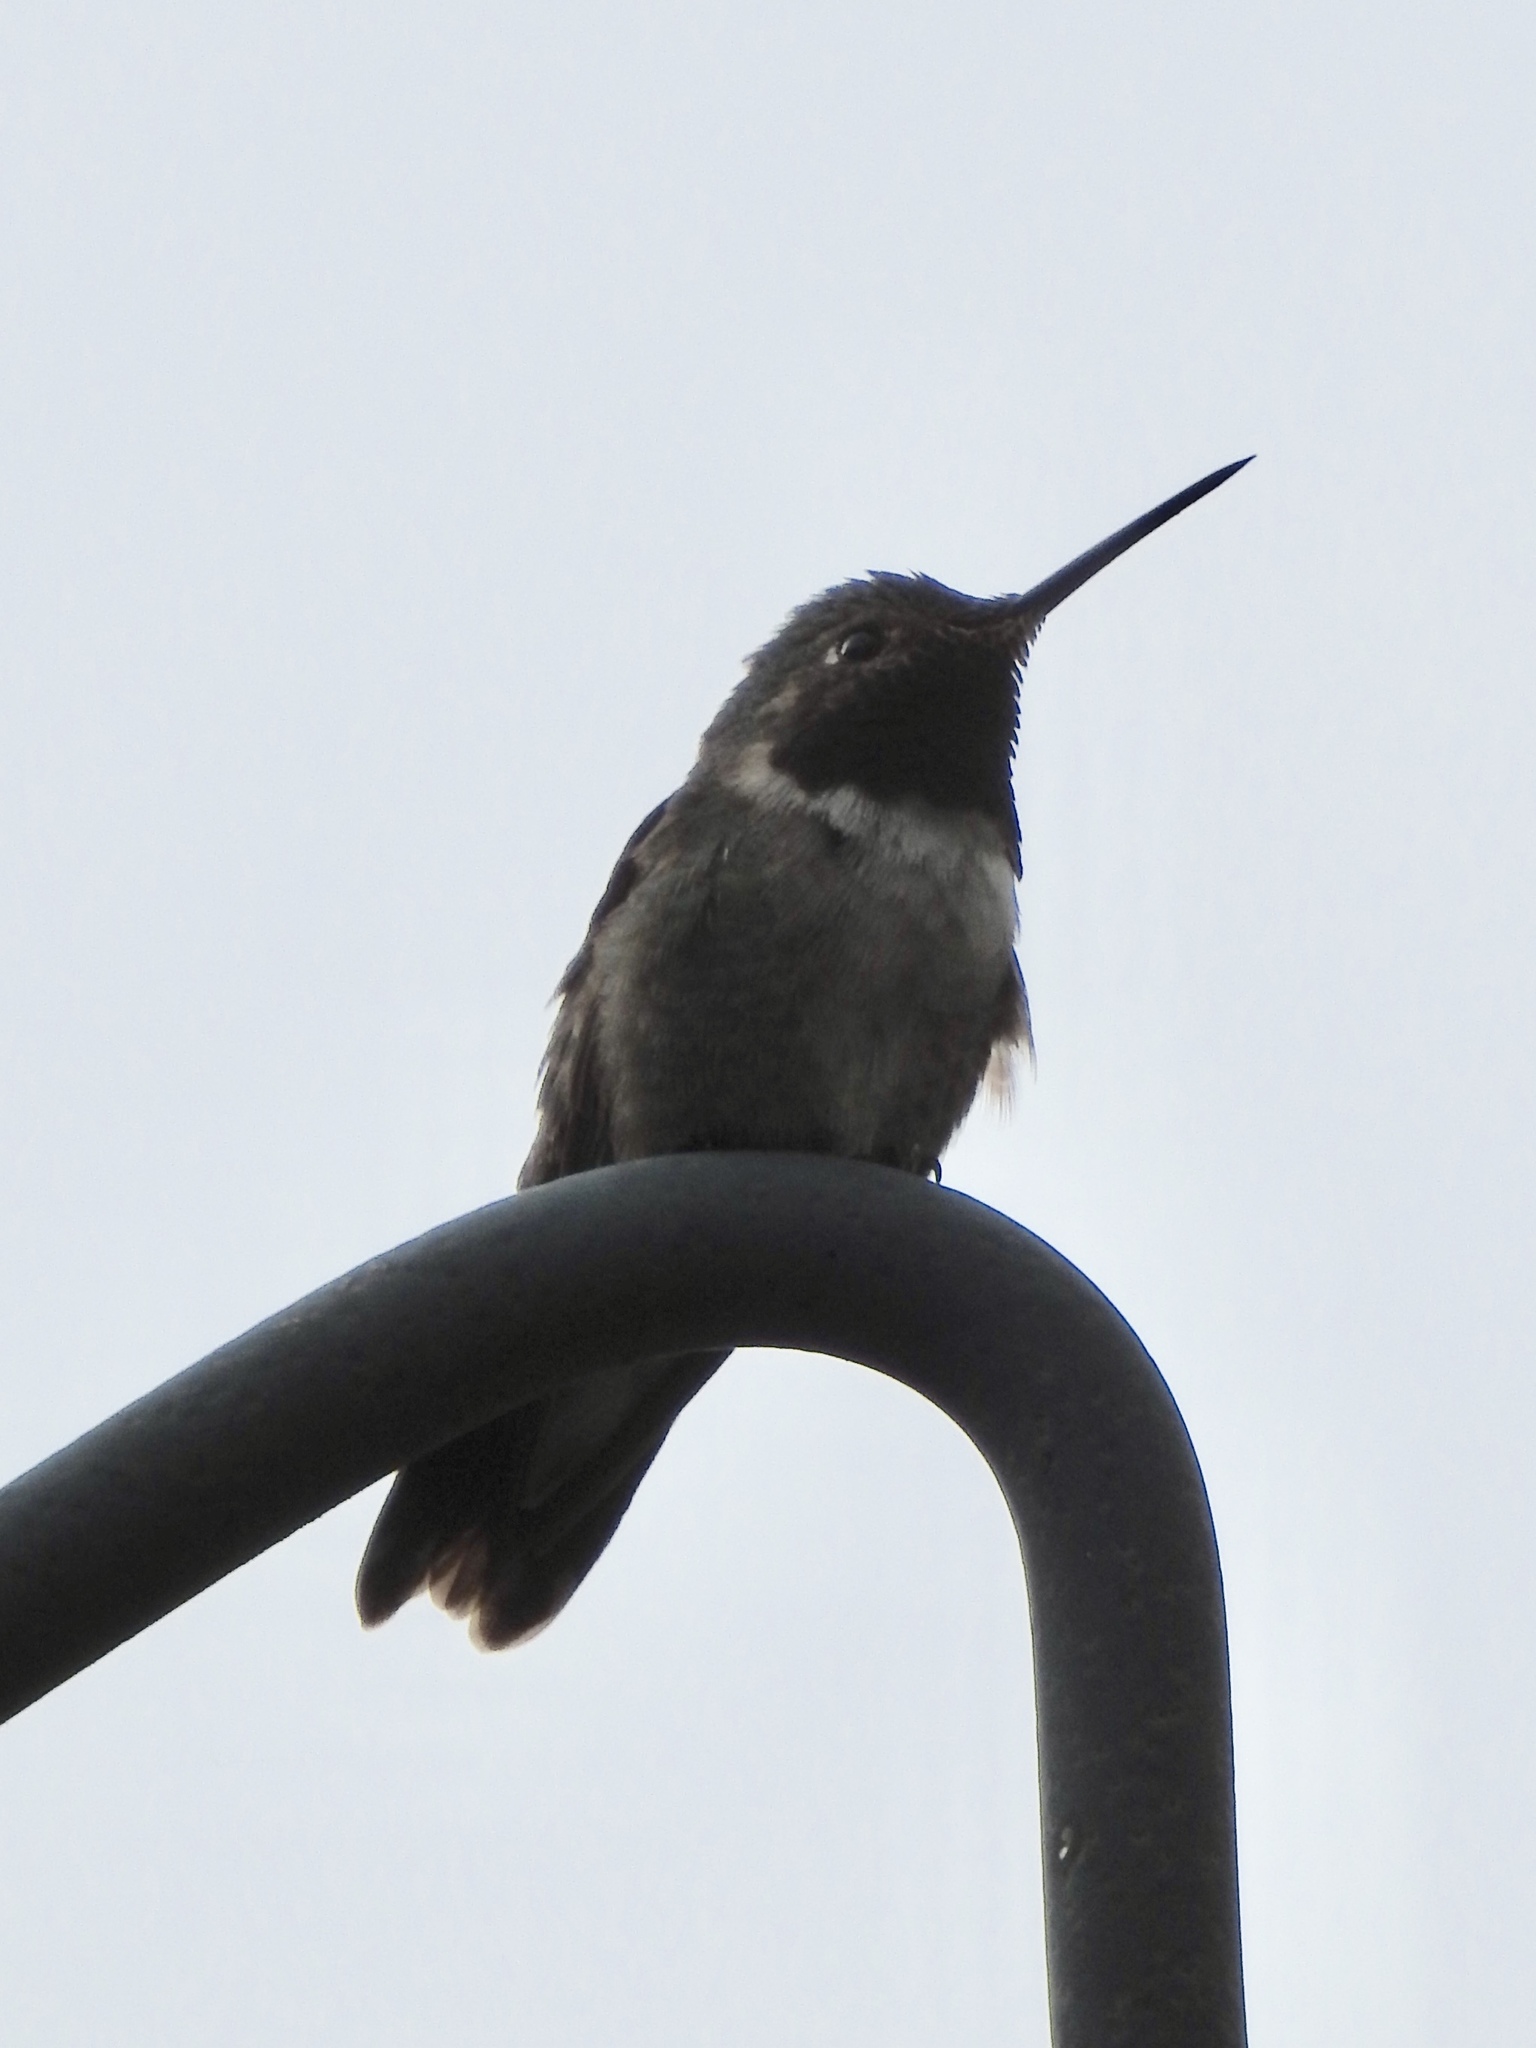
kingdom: Animalia
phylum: Chordata
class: Aves
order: Apodiformes
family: Trochilidae
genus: Selasphorus
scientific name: Selasphorus platycercus
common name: Broad-tailed hummingbird
